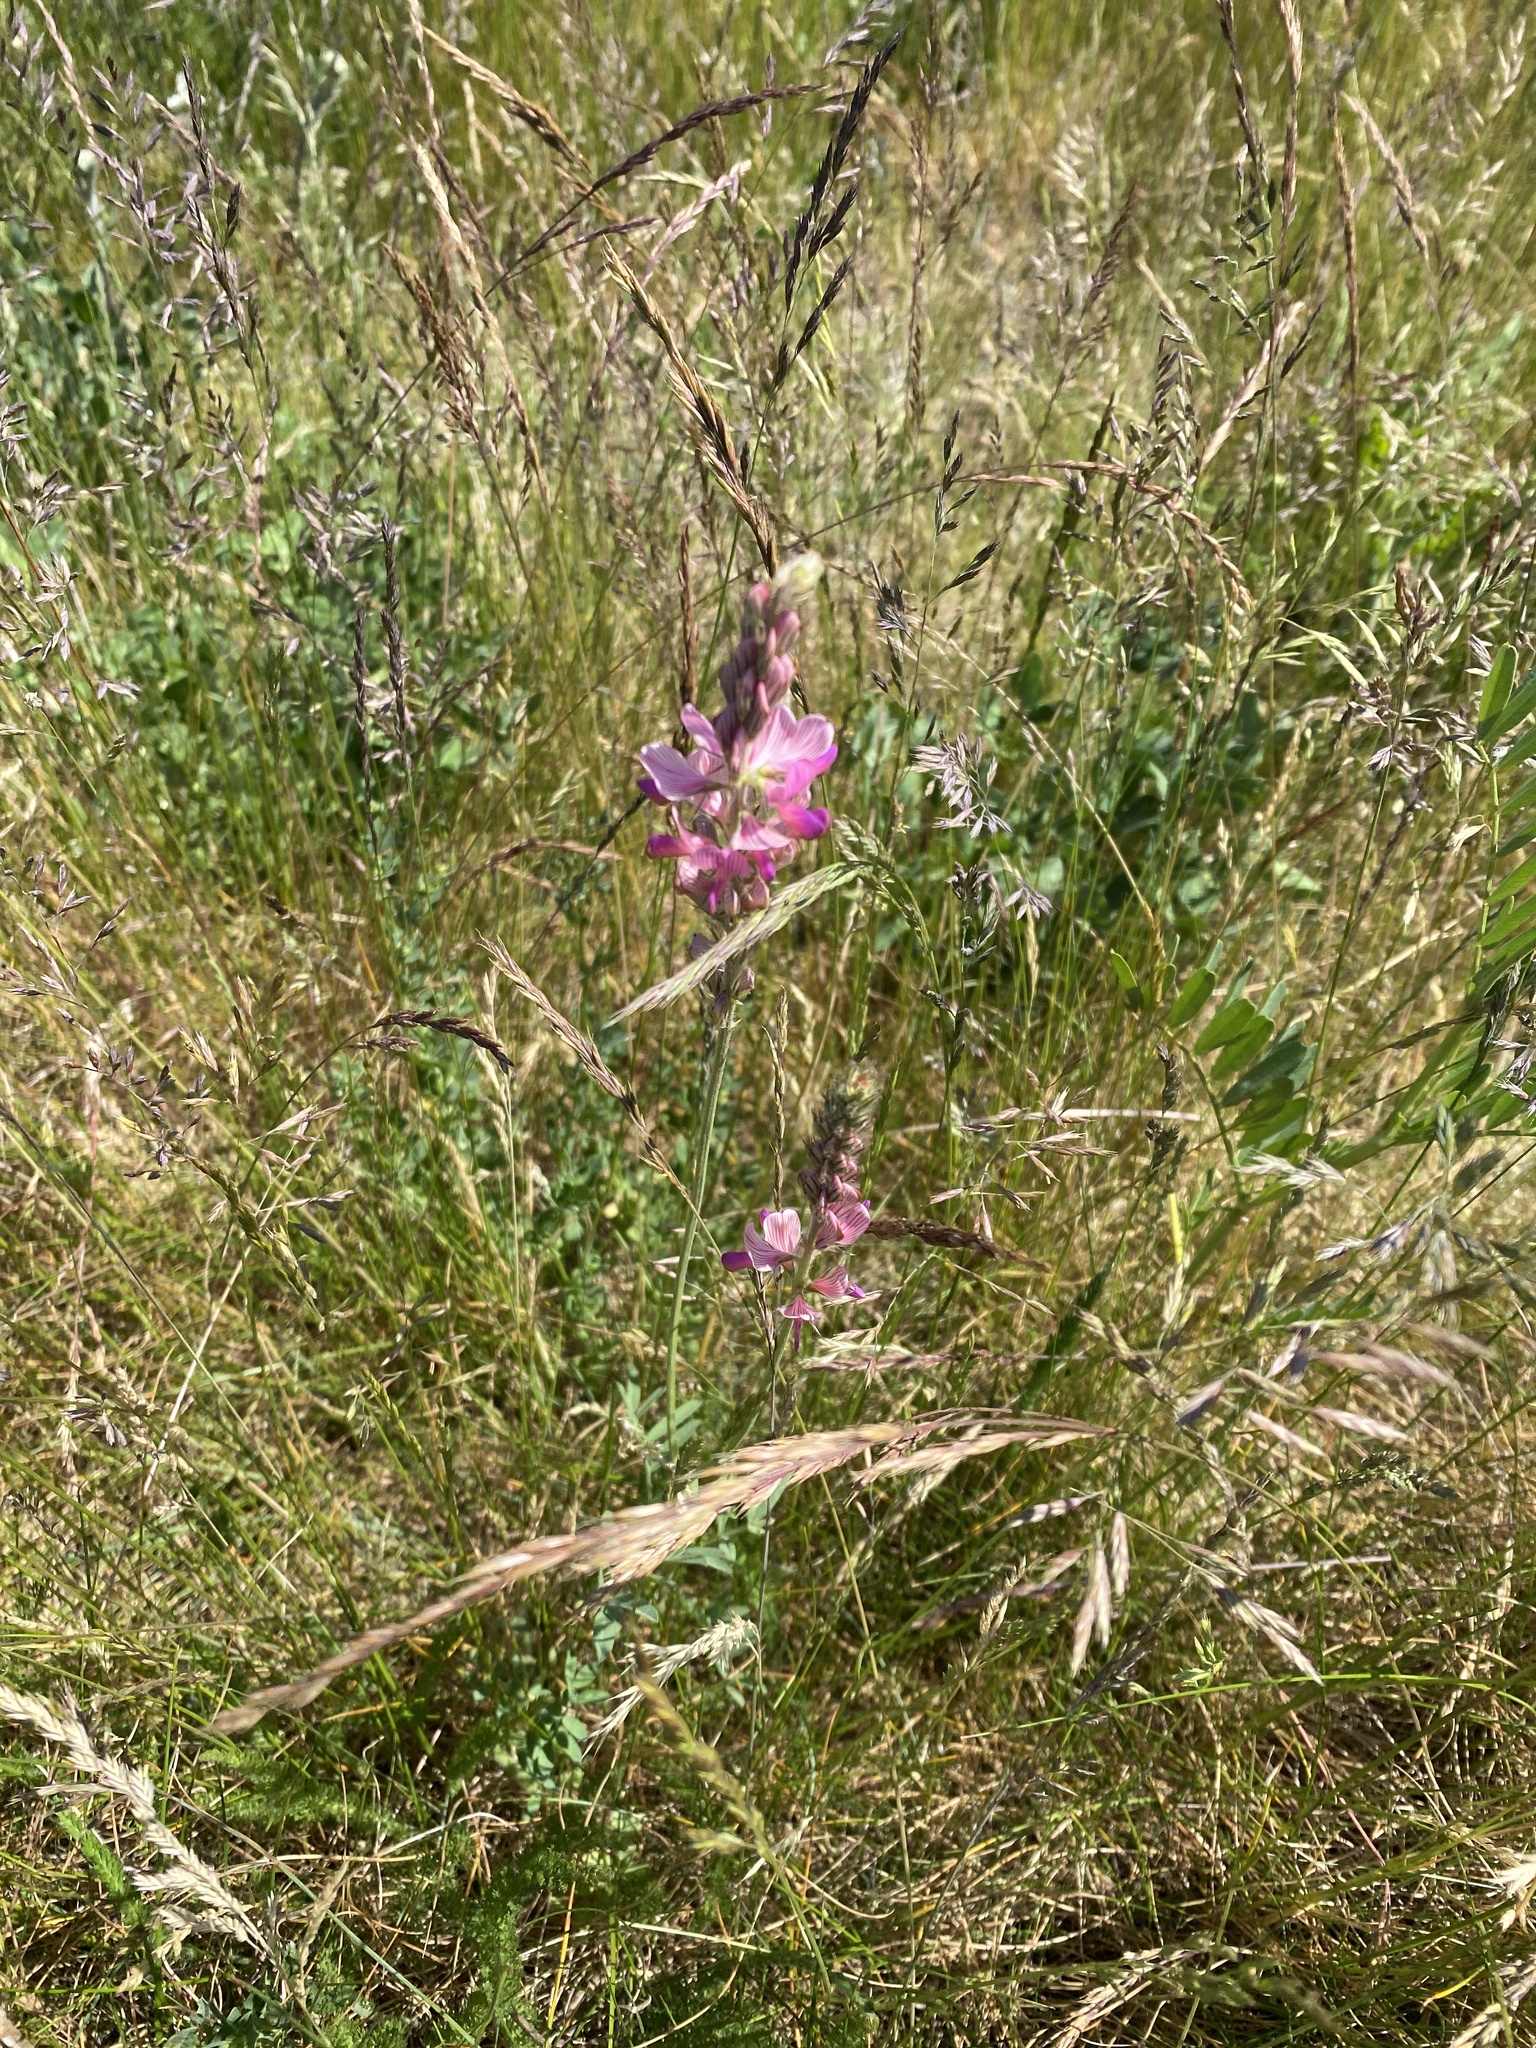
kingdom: Plantae
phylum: Tracheophyta
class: Magnoliopsida
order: Fabales
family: Fabaceae
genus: Onobrychis
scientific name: Onobrychis viciifolia
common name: Sainfoin
